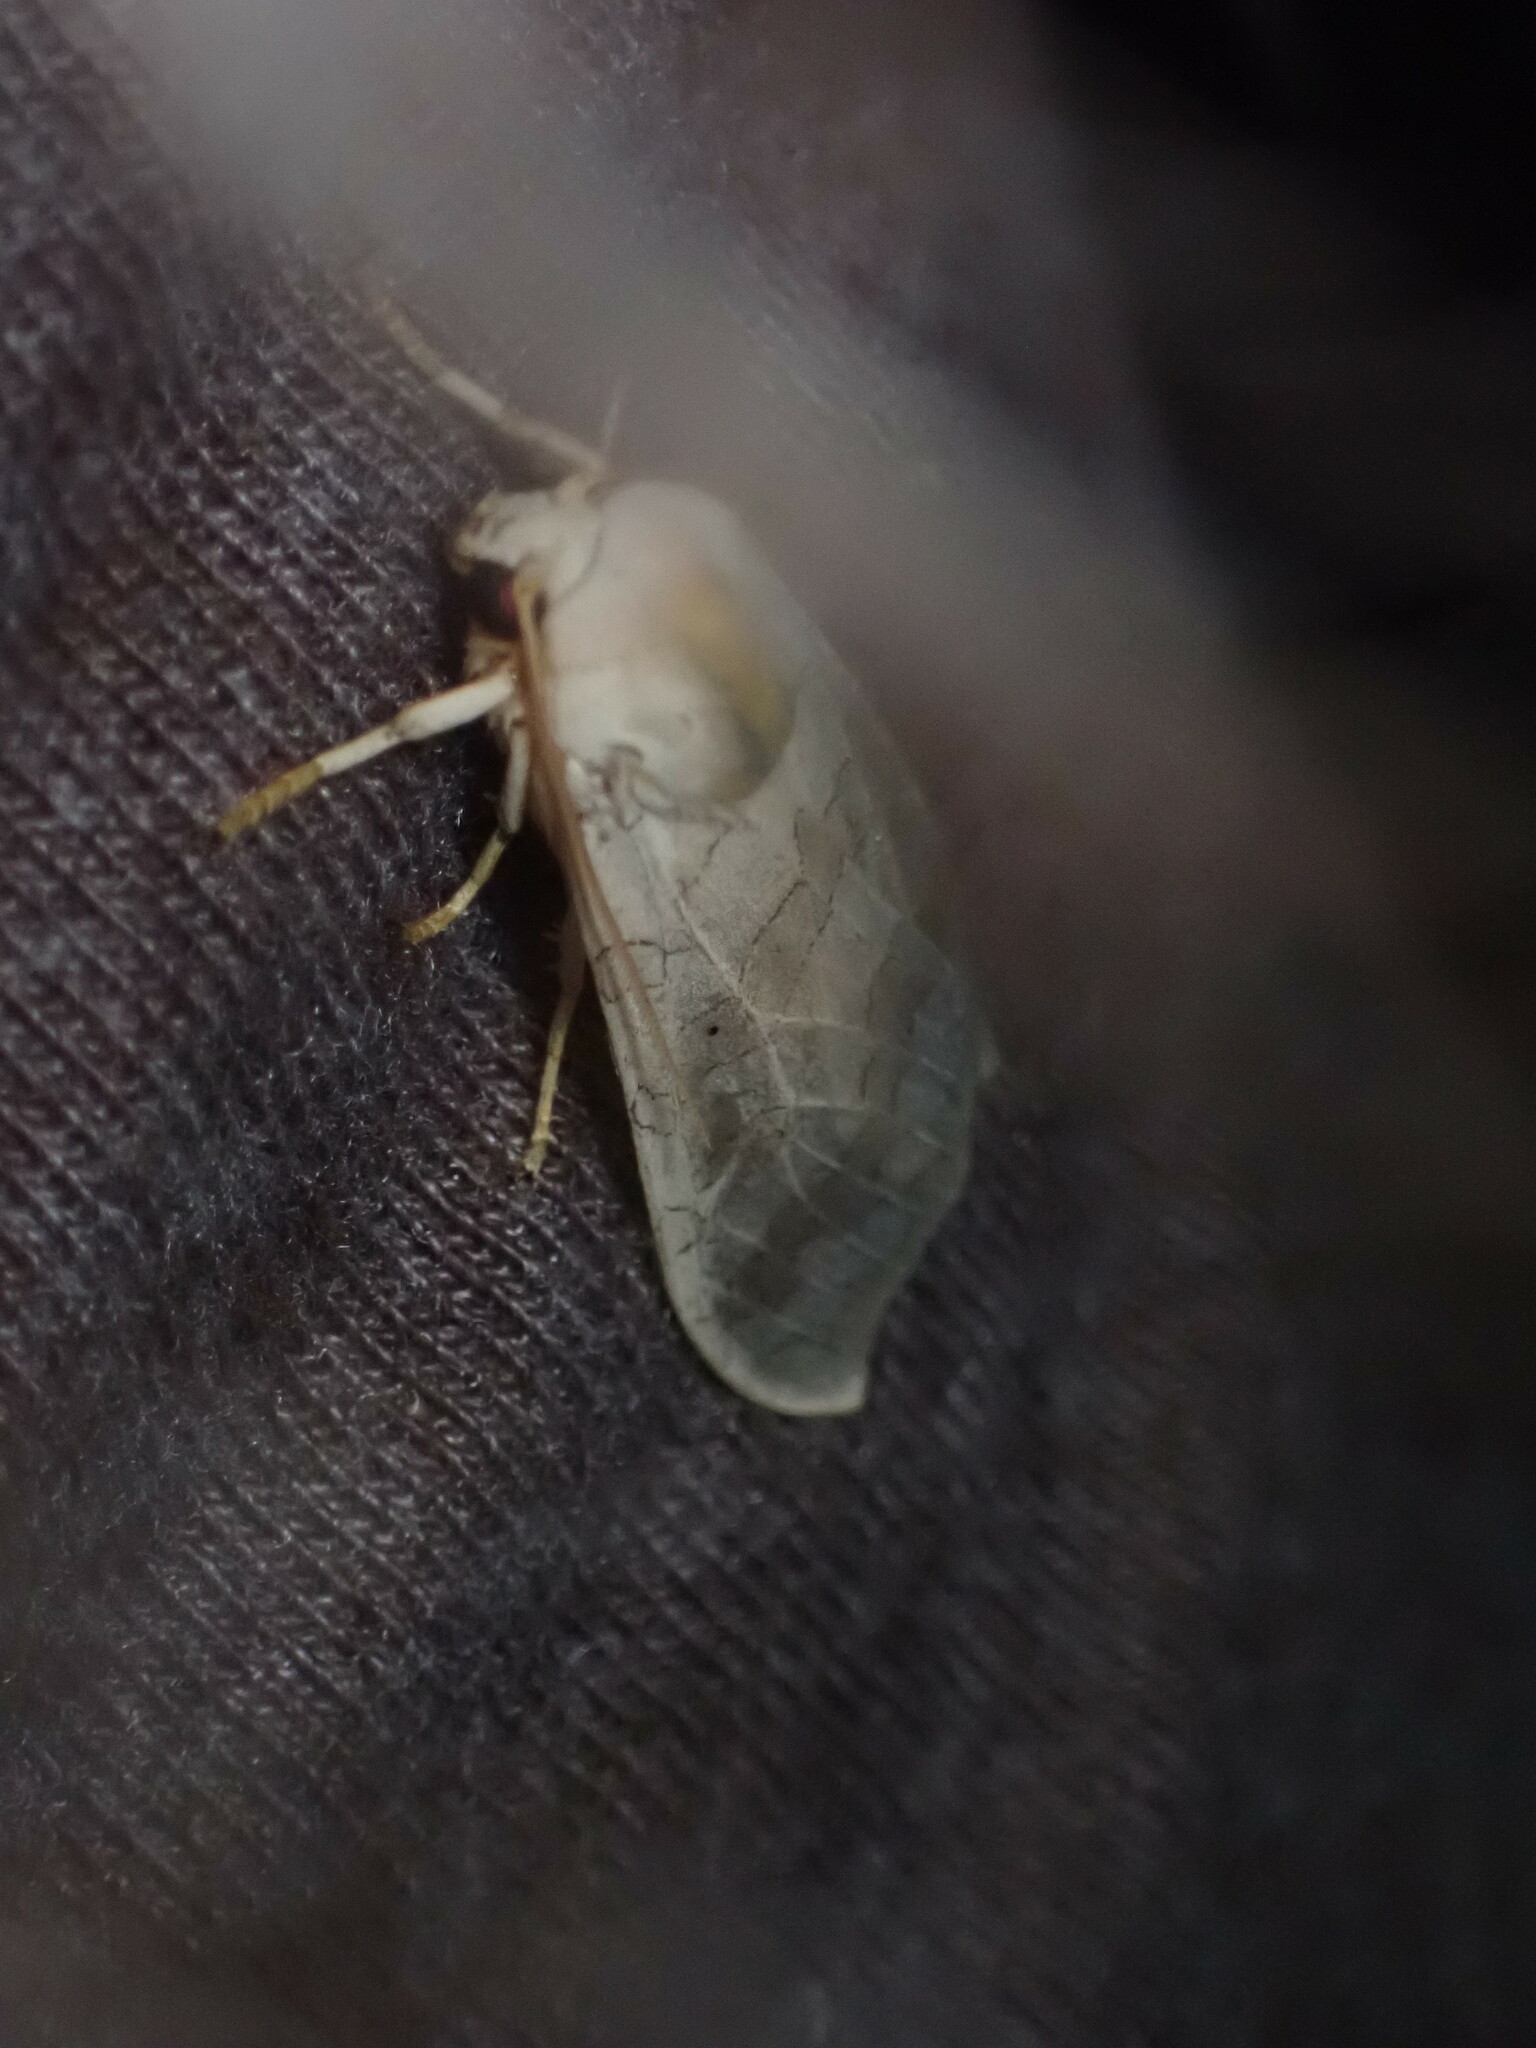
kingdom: Animalia
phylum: Arthropoda
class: Insecta
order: Lepidoptera
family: Erebidae
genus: Halysidota
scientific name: Halysidota
